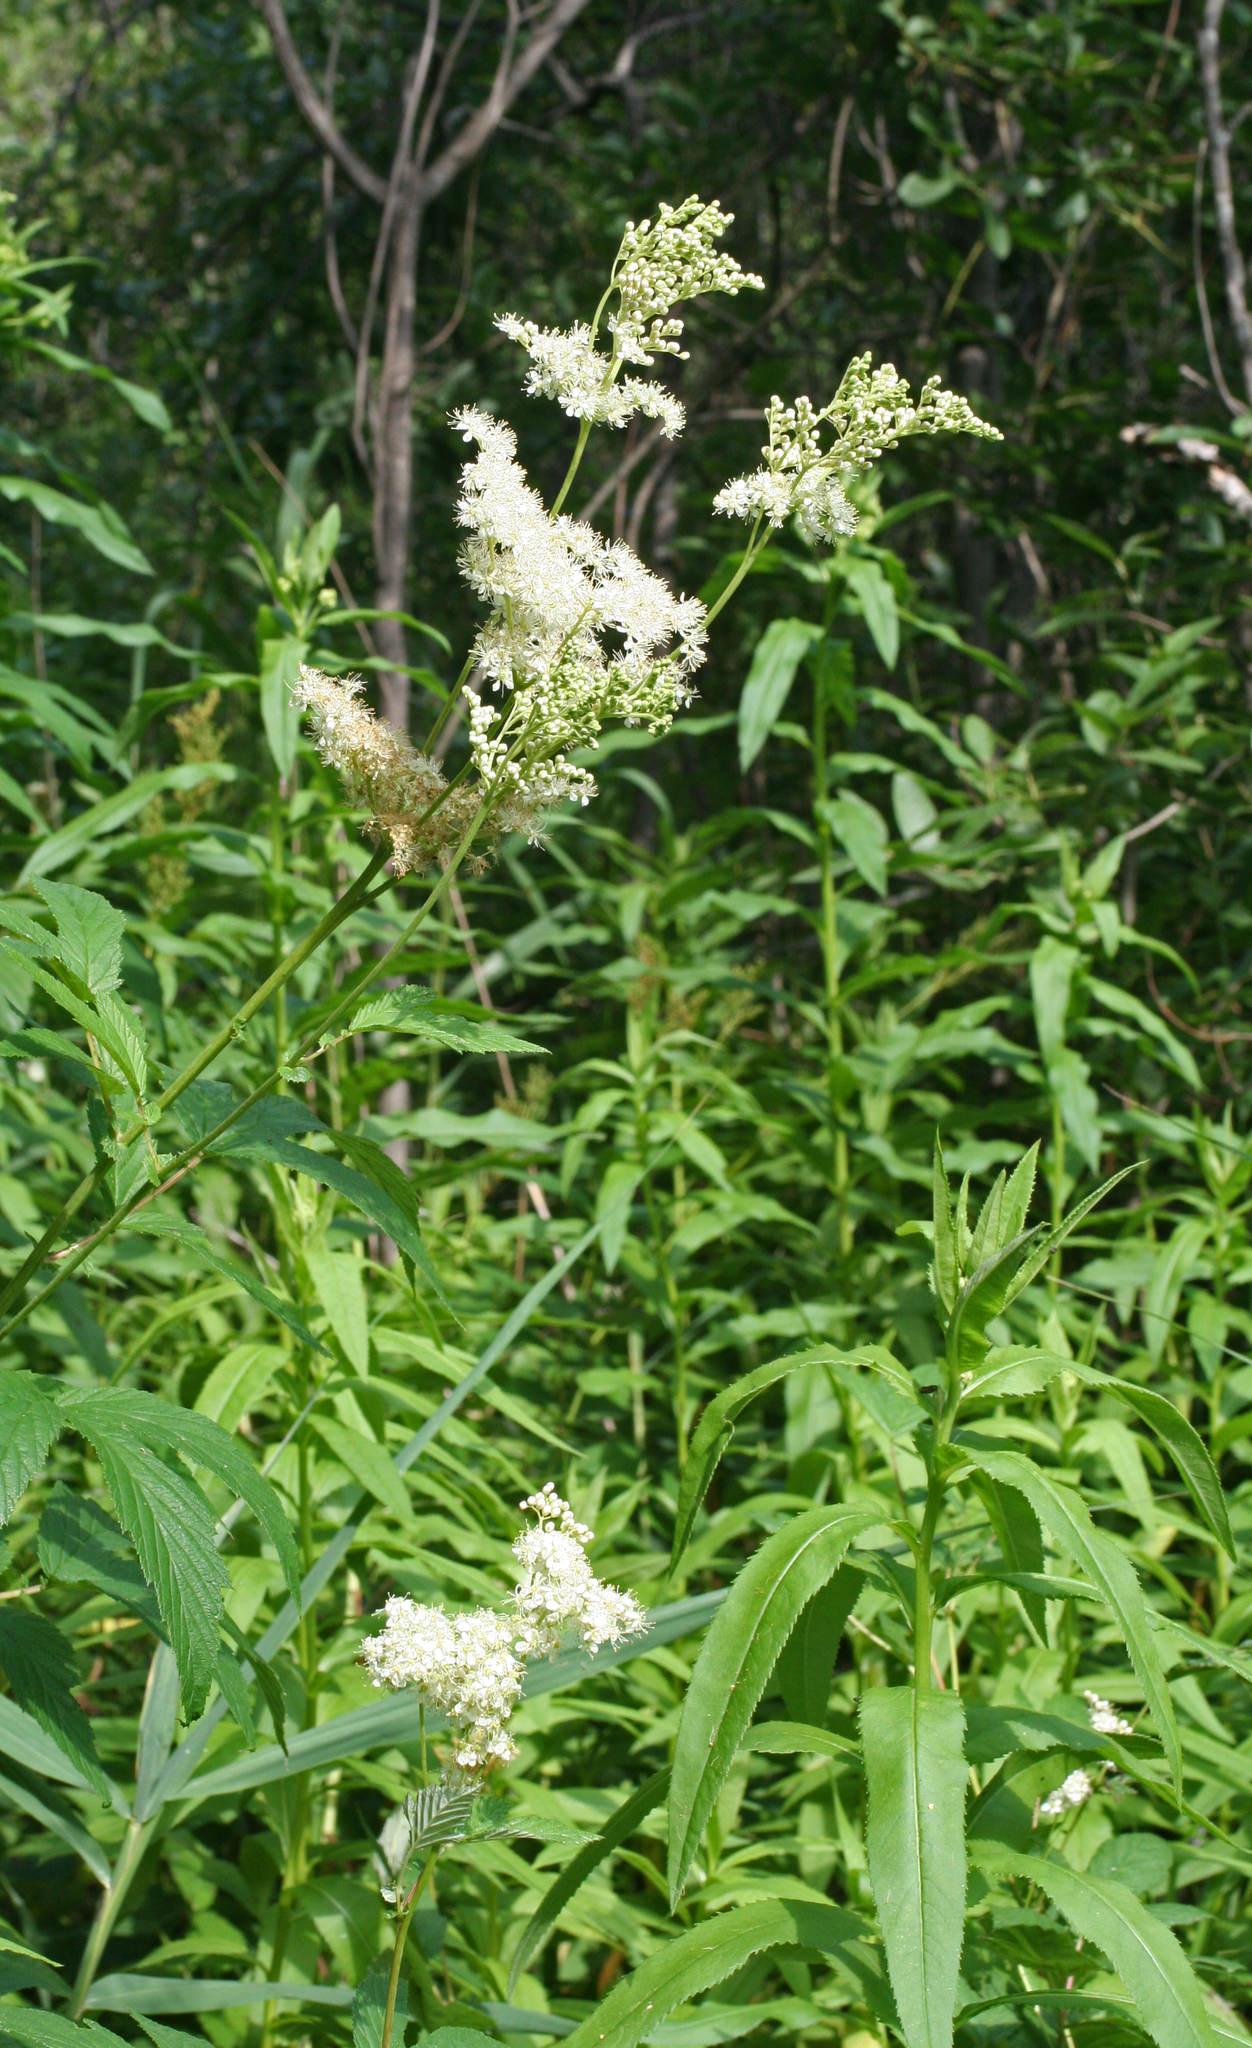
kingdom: Plantae
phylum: Tracheophyta
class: Magnoliopsida
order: Rosales
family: Rosaceae
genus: Filipendula
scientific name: Filipendula ulmaria
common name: Meadowsweet
